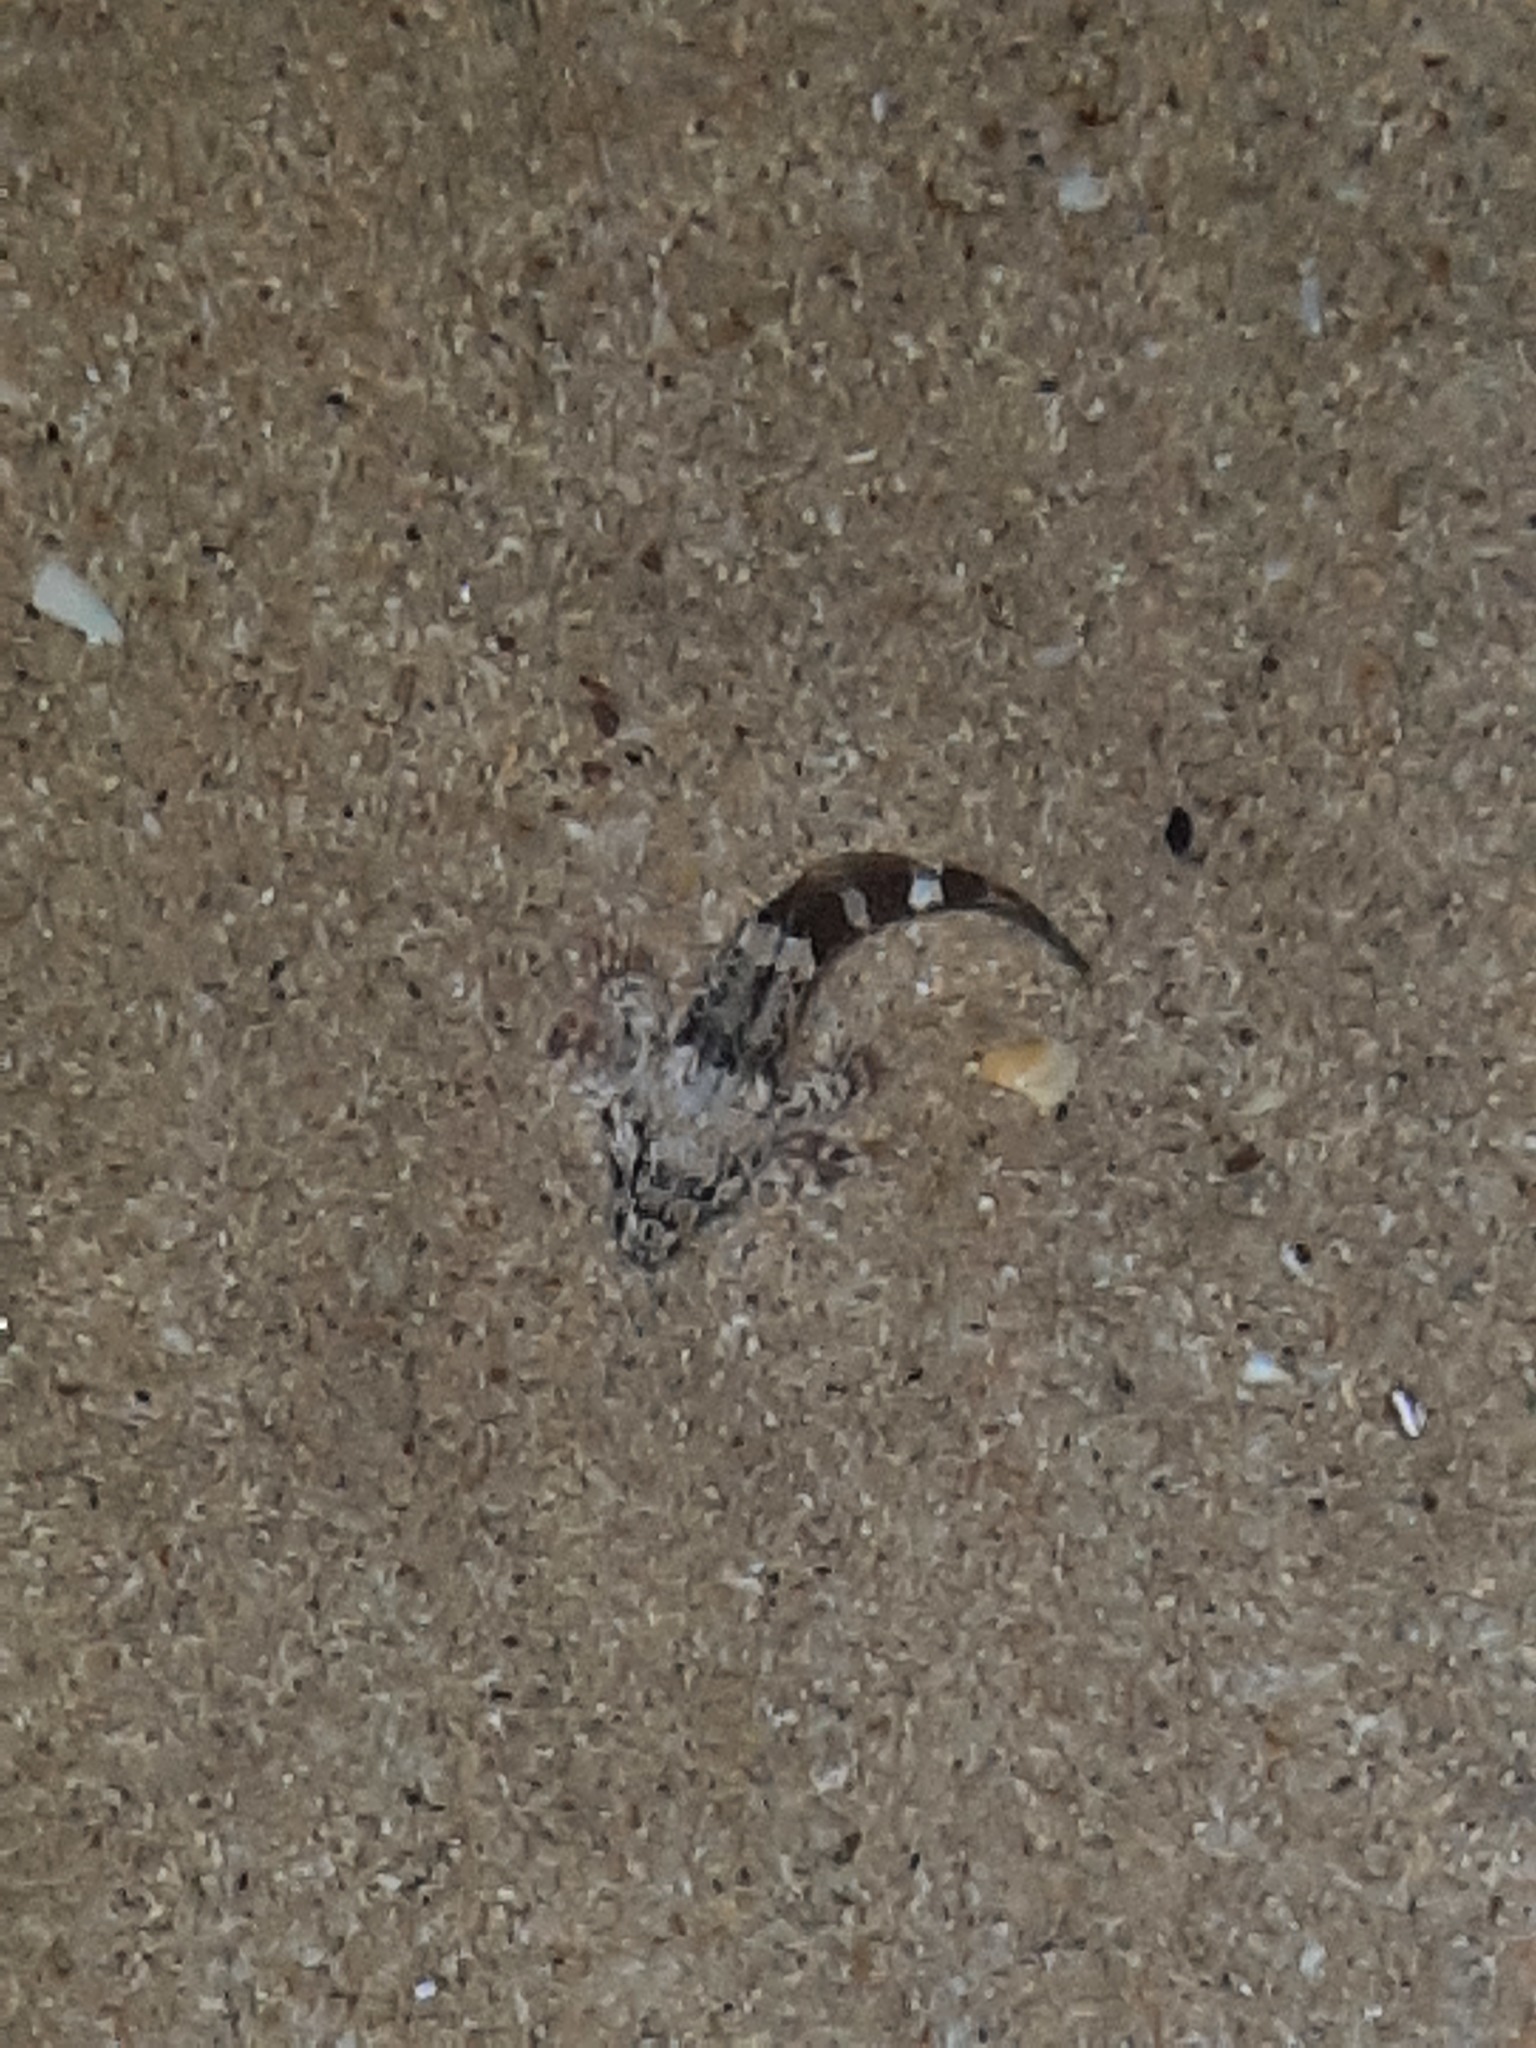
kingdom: Animalia
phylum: Chordata
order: Perciformes
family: Bovichtidae
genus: Bovichtus
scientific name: Bovichtus angustifrons
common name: Dragonet
